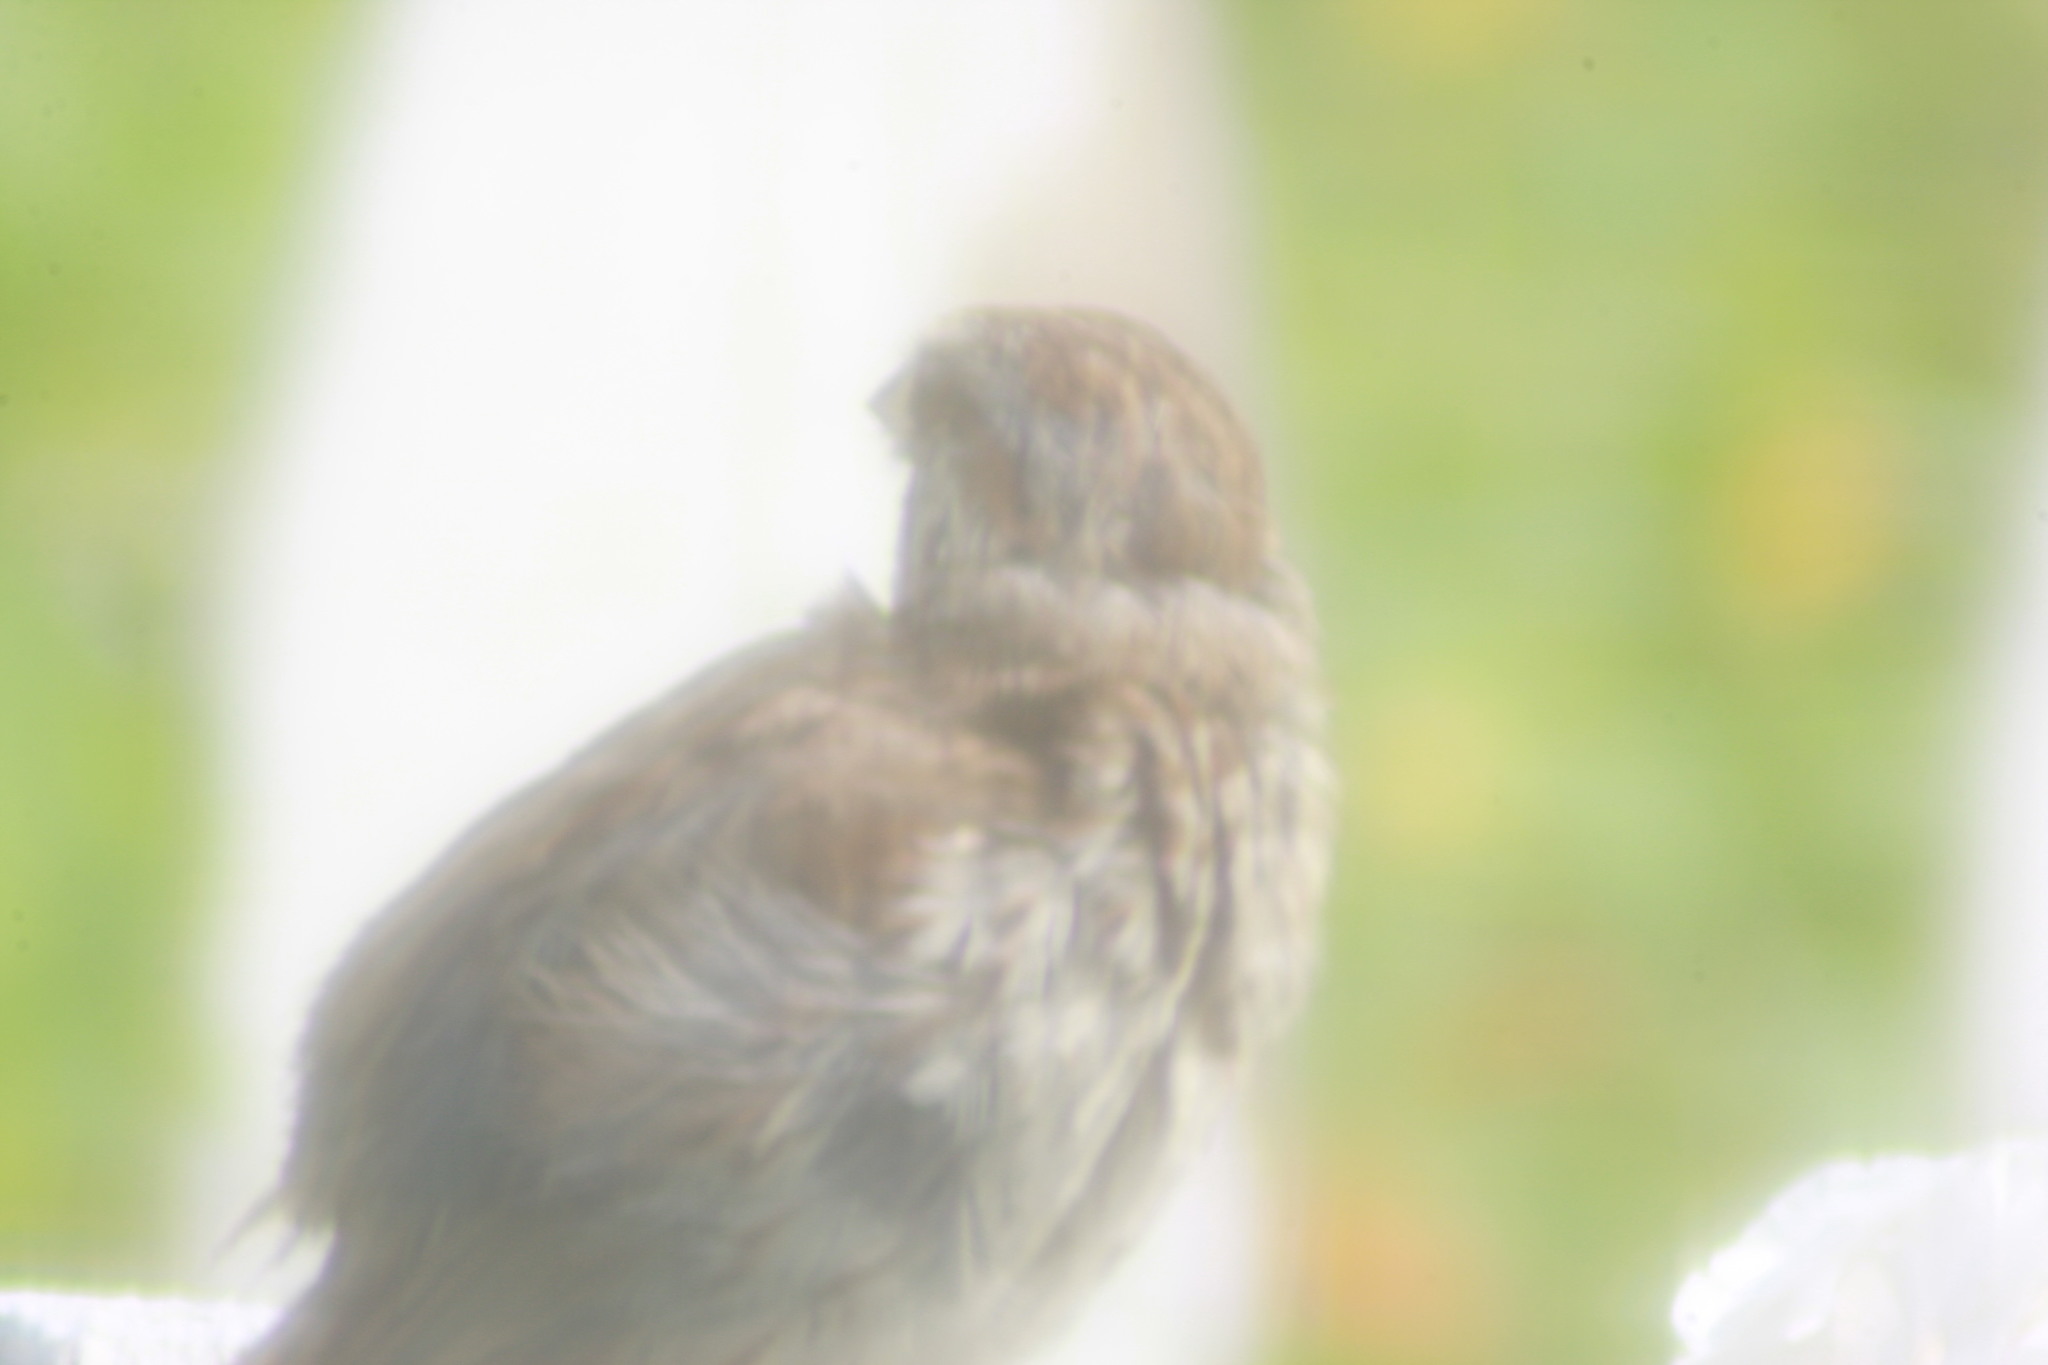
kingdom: Animalia
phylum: Chordata
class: Aves
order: Passeriformes
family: Passerellidae
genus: Melospiza
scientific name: Melospiza melodia
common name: Song sparrow
